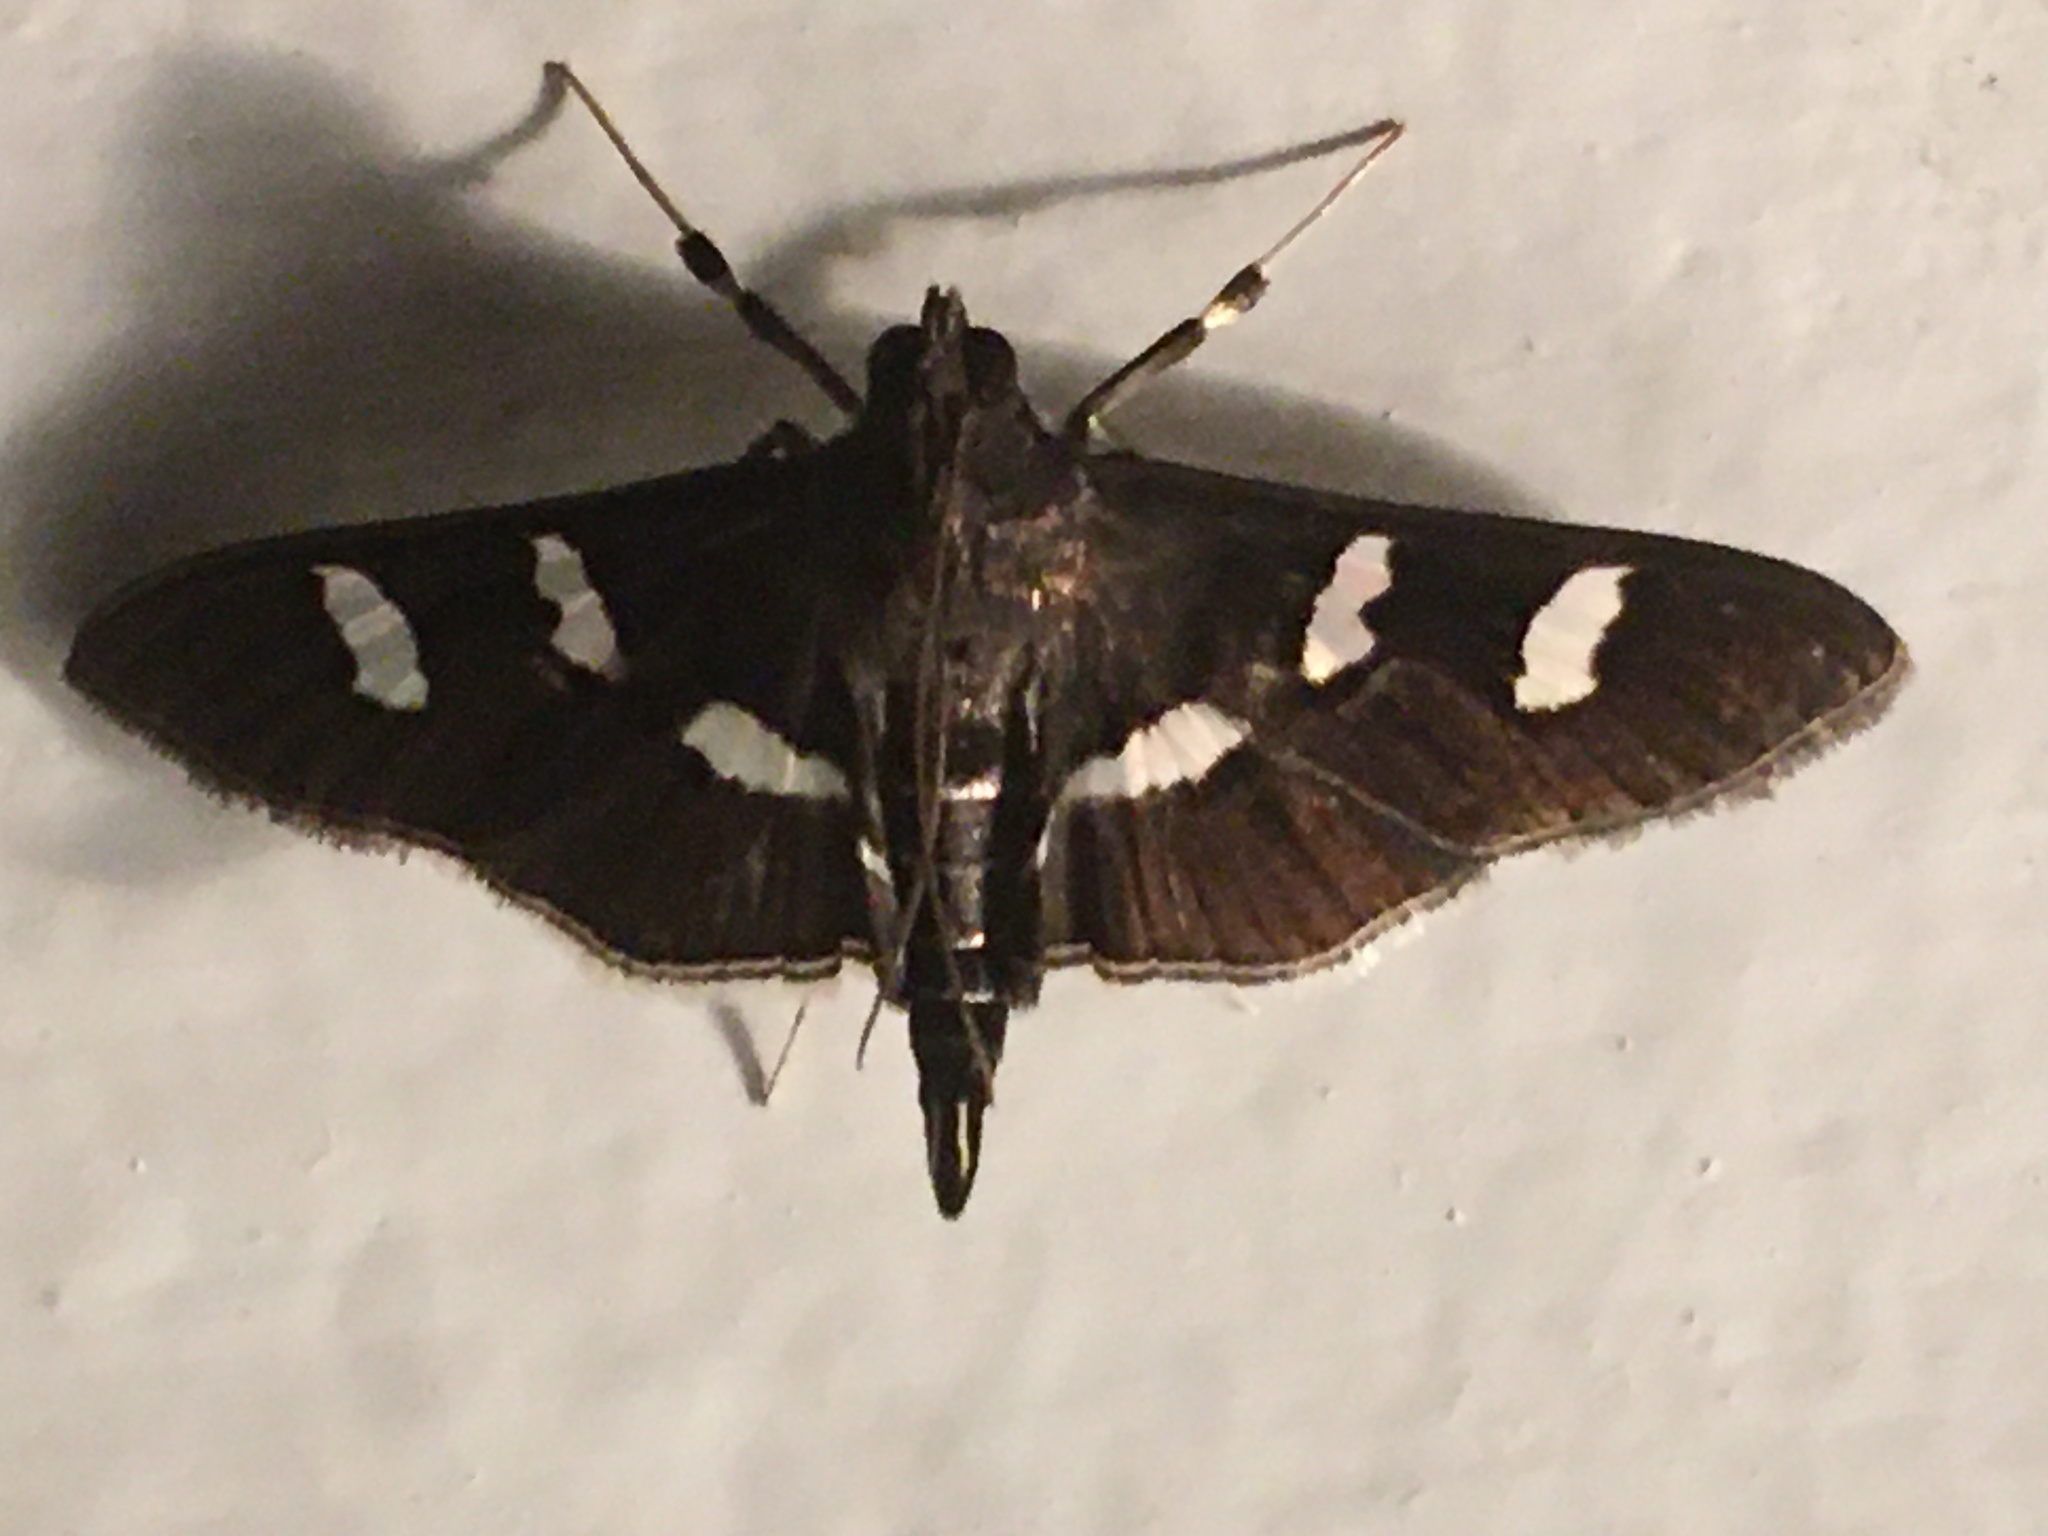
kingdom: Animalia
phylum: Arthropoda
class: Insecta
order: Lepidoptera
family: Crambidae
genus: Desmia
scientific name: Desmia ploralis
